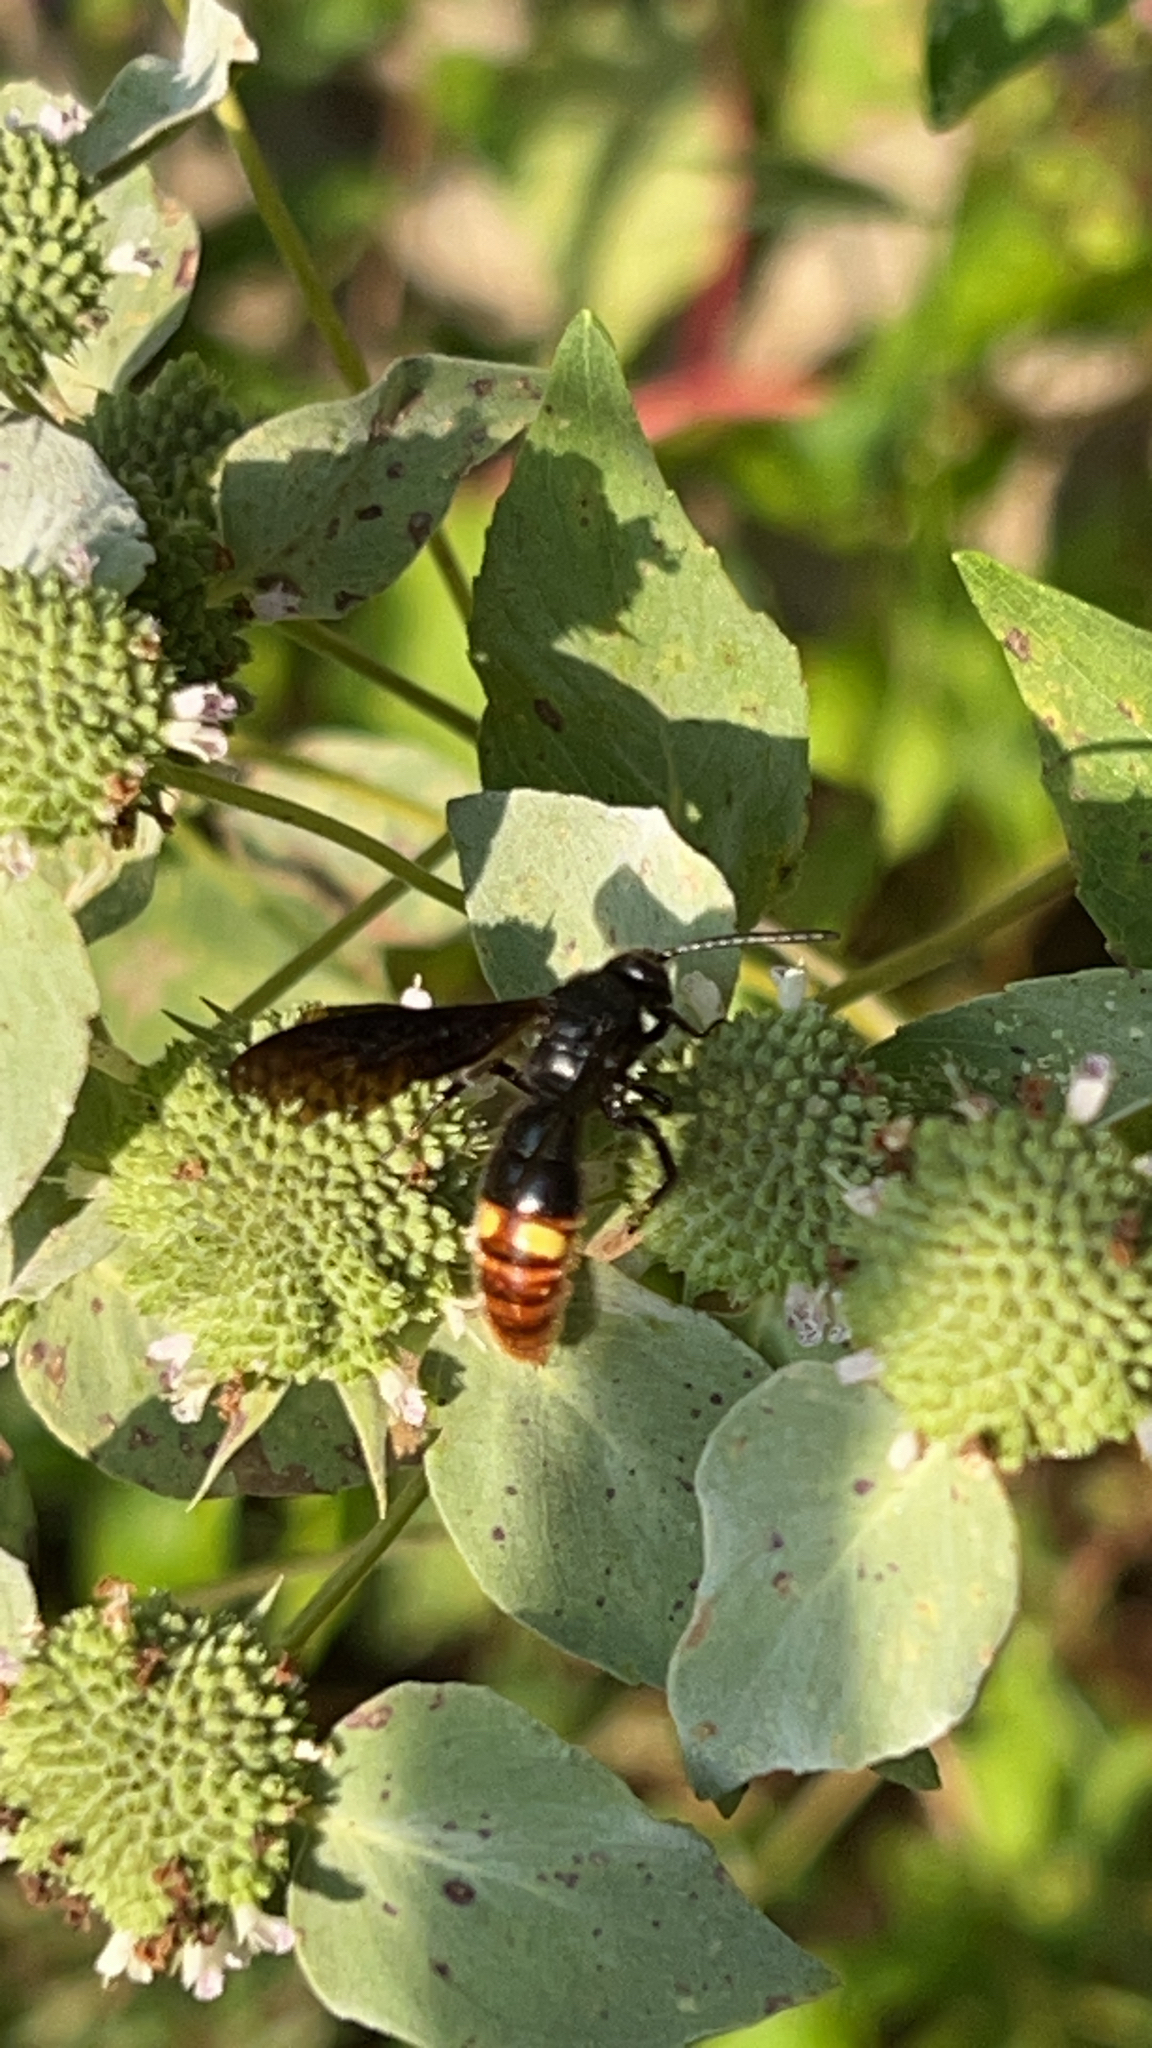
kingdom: Animalia
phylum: Arthropoda
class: Insecta
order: Hymenoptera
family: Scoliidae
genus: Scolia
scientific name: Scolia dubia
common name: Blue-winged scoliid wasp
